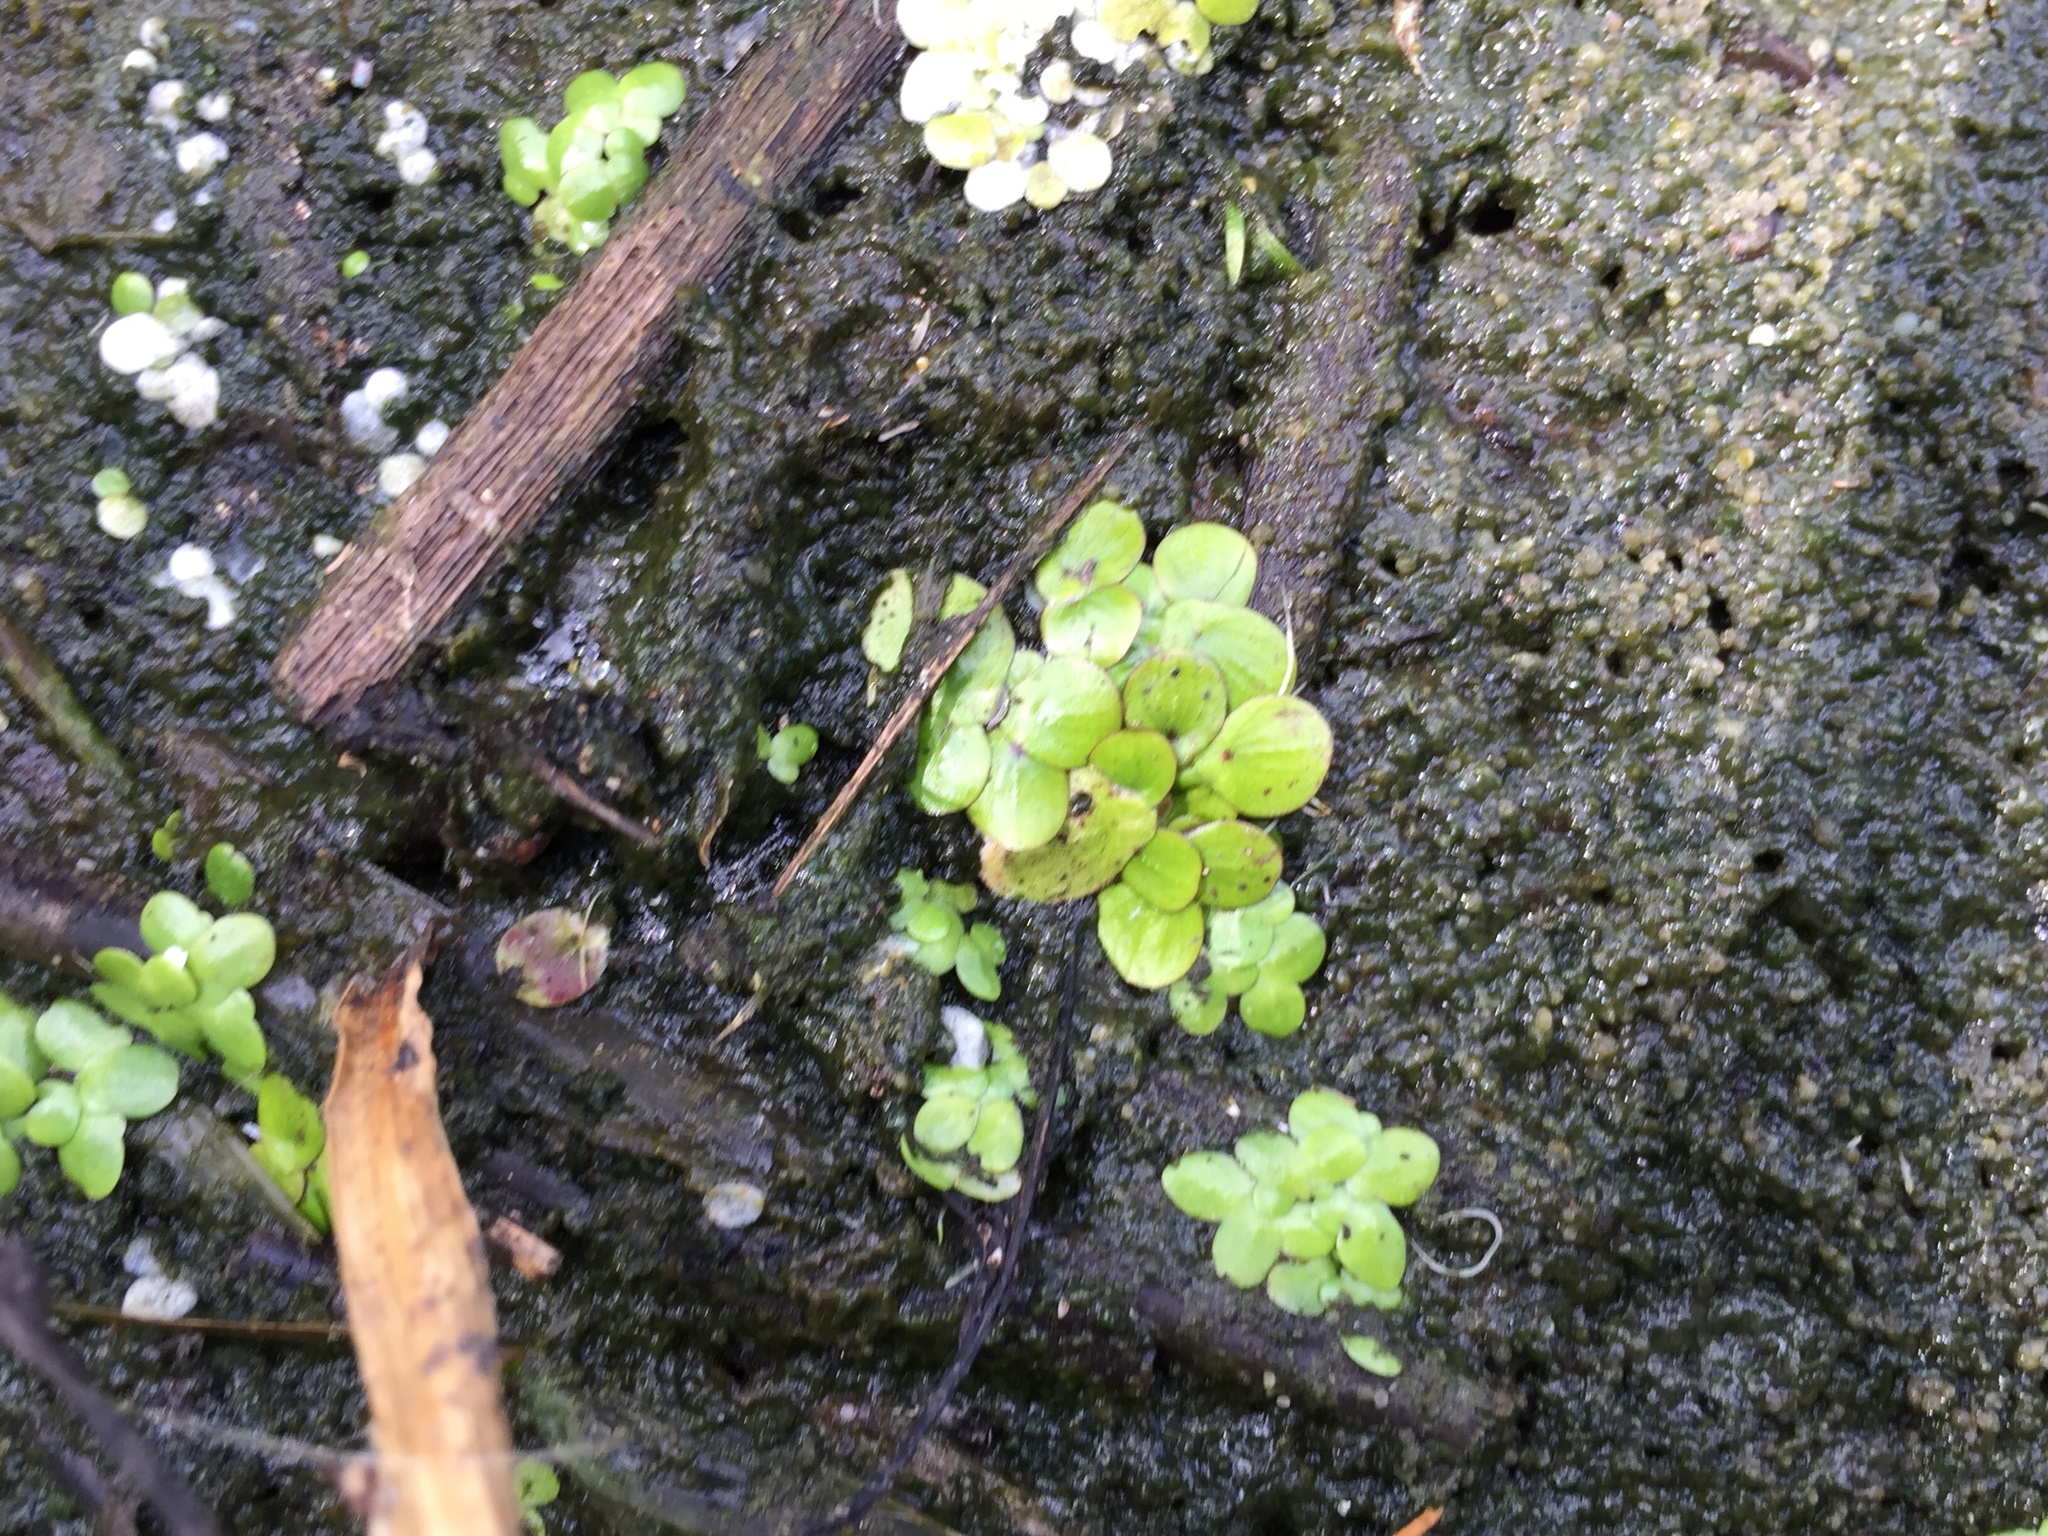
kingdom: Plantae
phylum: Tracheophyta
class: Liliopsida
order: Alismatales
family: Araceae
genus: Spirodela
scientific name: Spirodela polyrhiza
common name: Great duckweed
